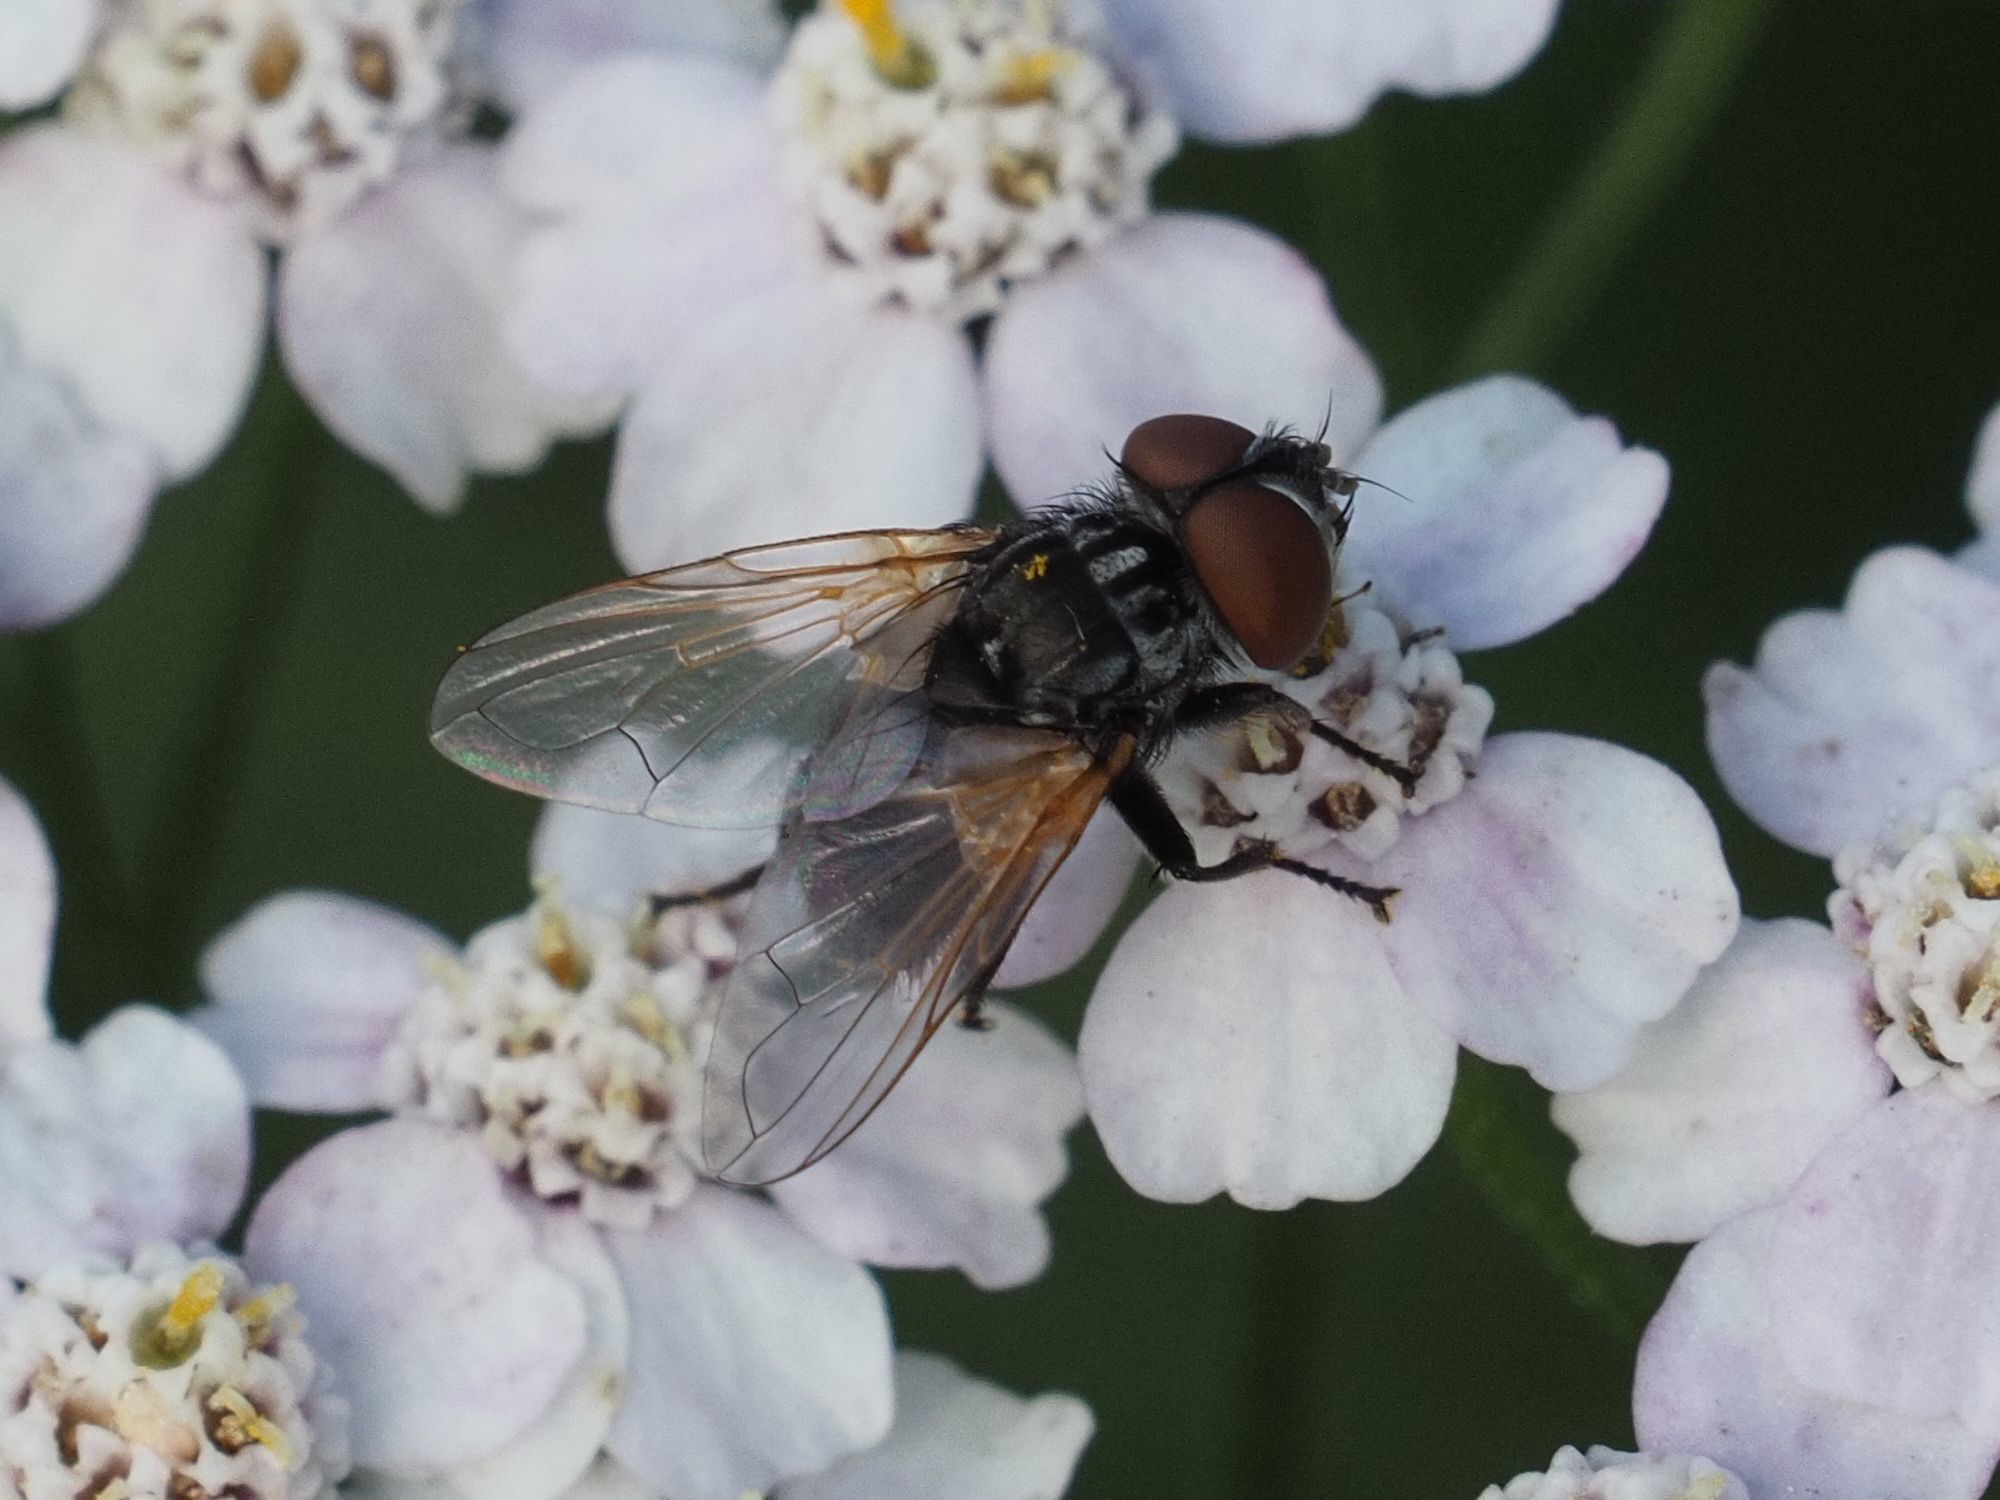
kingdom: Animalia
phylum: Arthropoda
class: Insecta
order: Diptera
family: Tachinidae
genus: Phasia
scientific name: Phasia obesa
